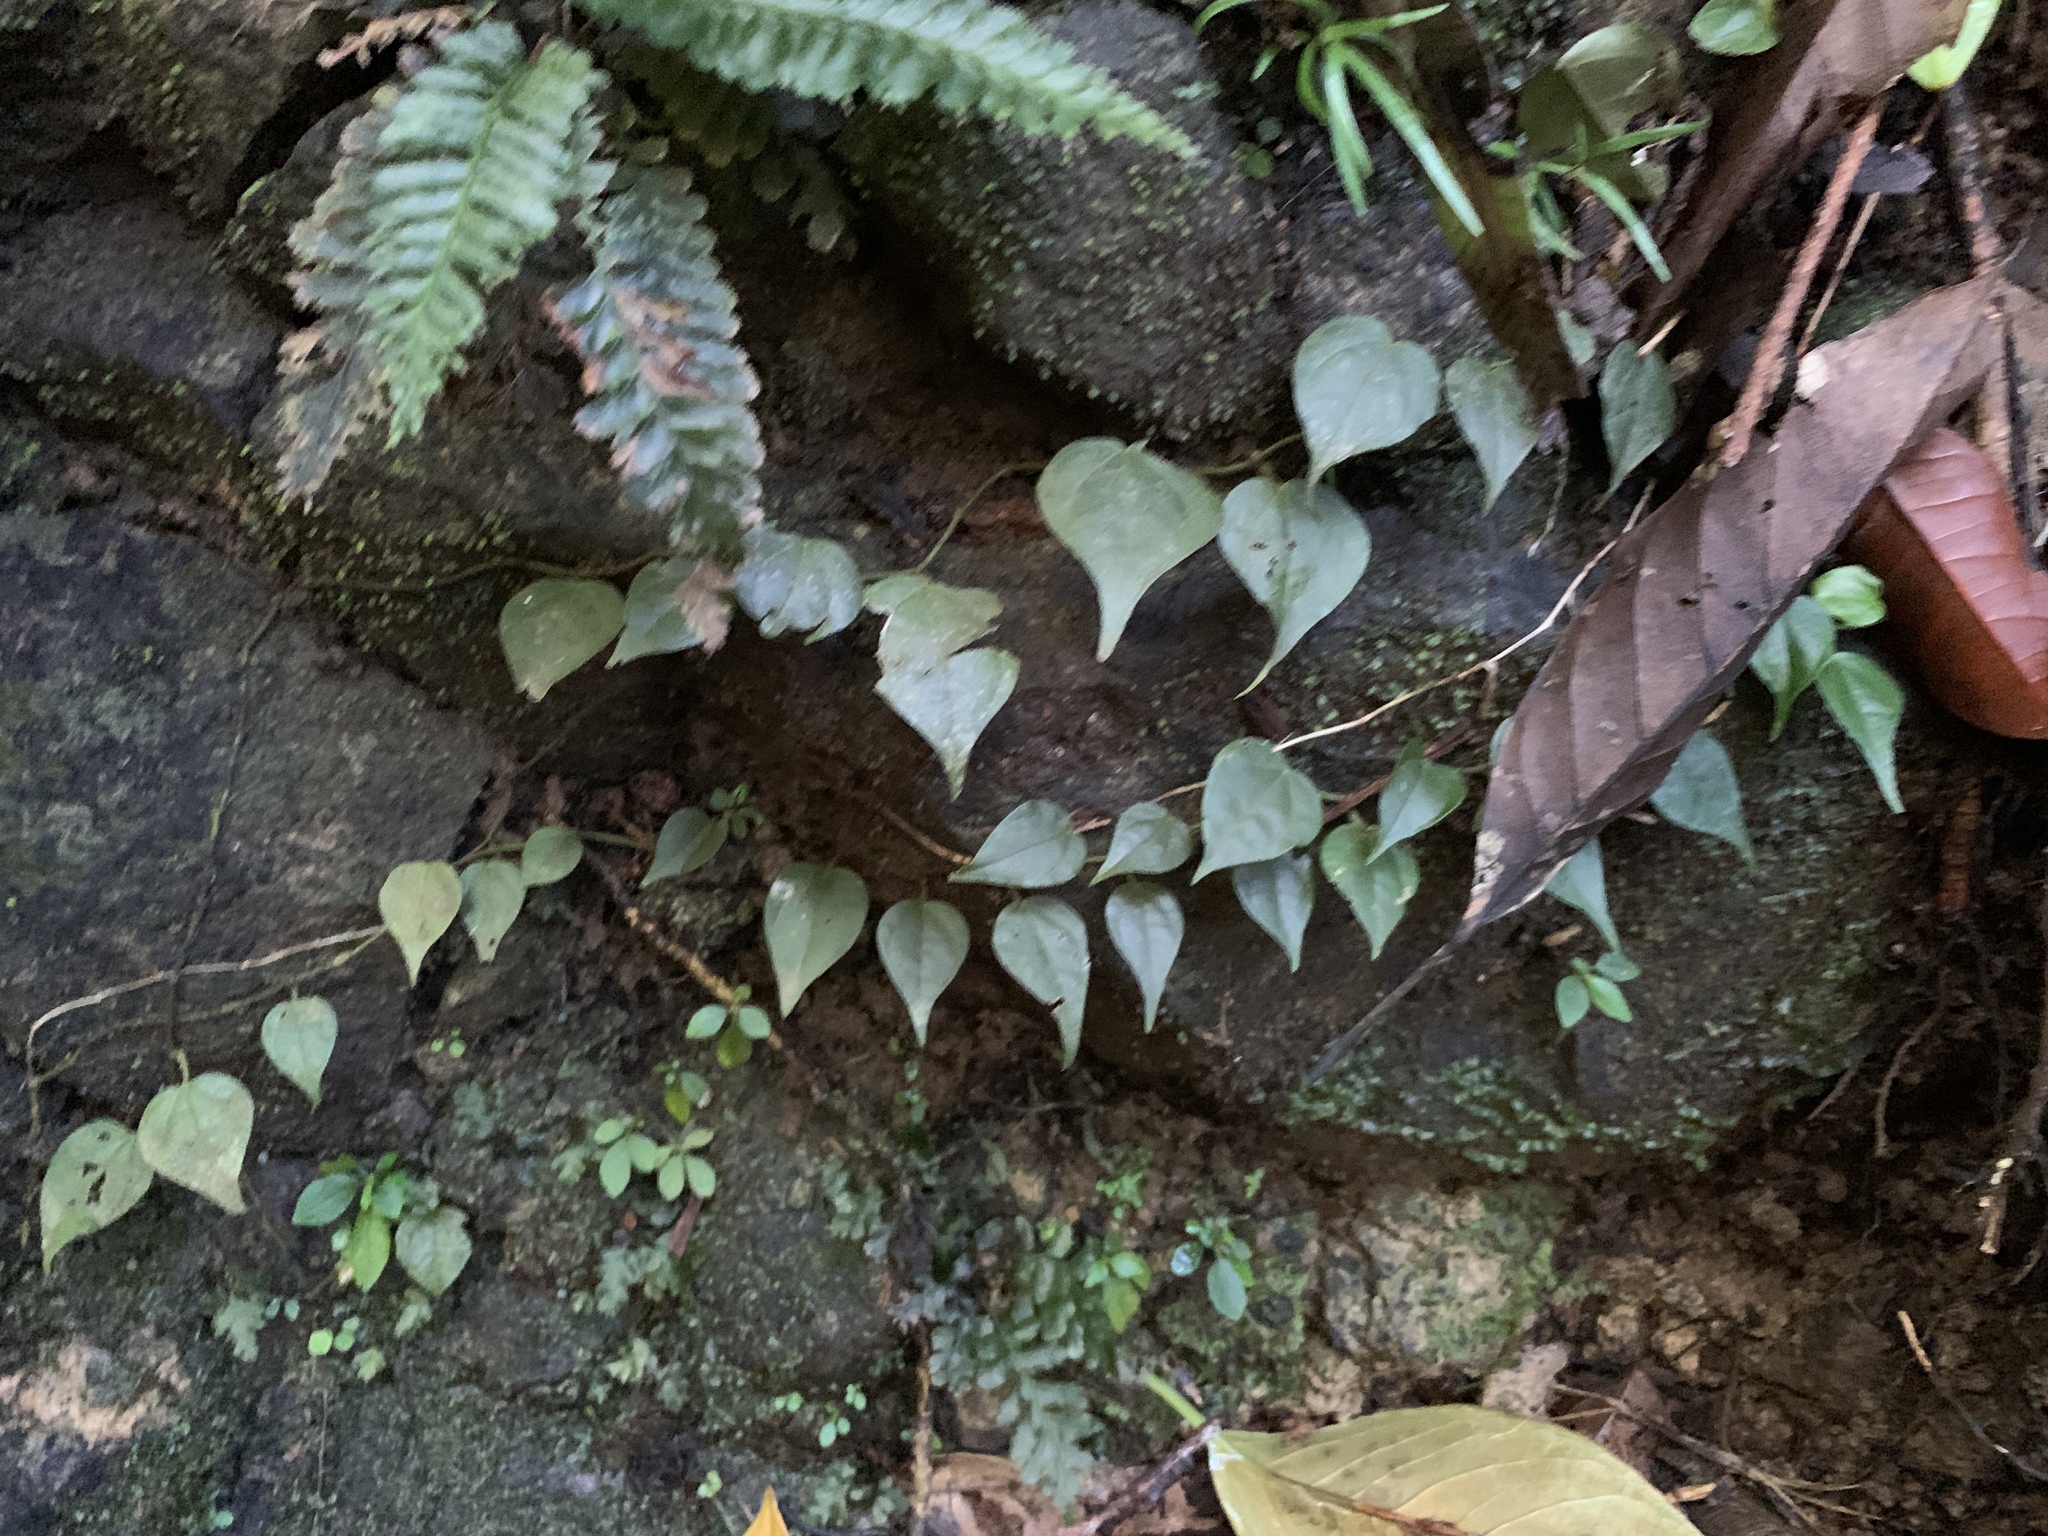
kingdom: Plantae
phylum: Tracheophyta
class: Magnoliopsida
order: Piperales
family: Piperaceae
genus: Piper
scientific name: Piper
